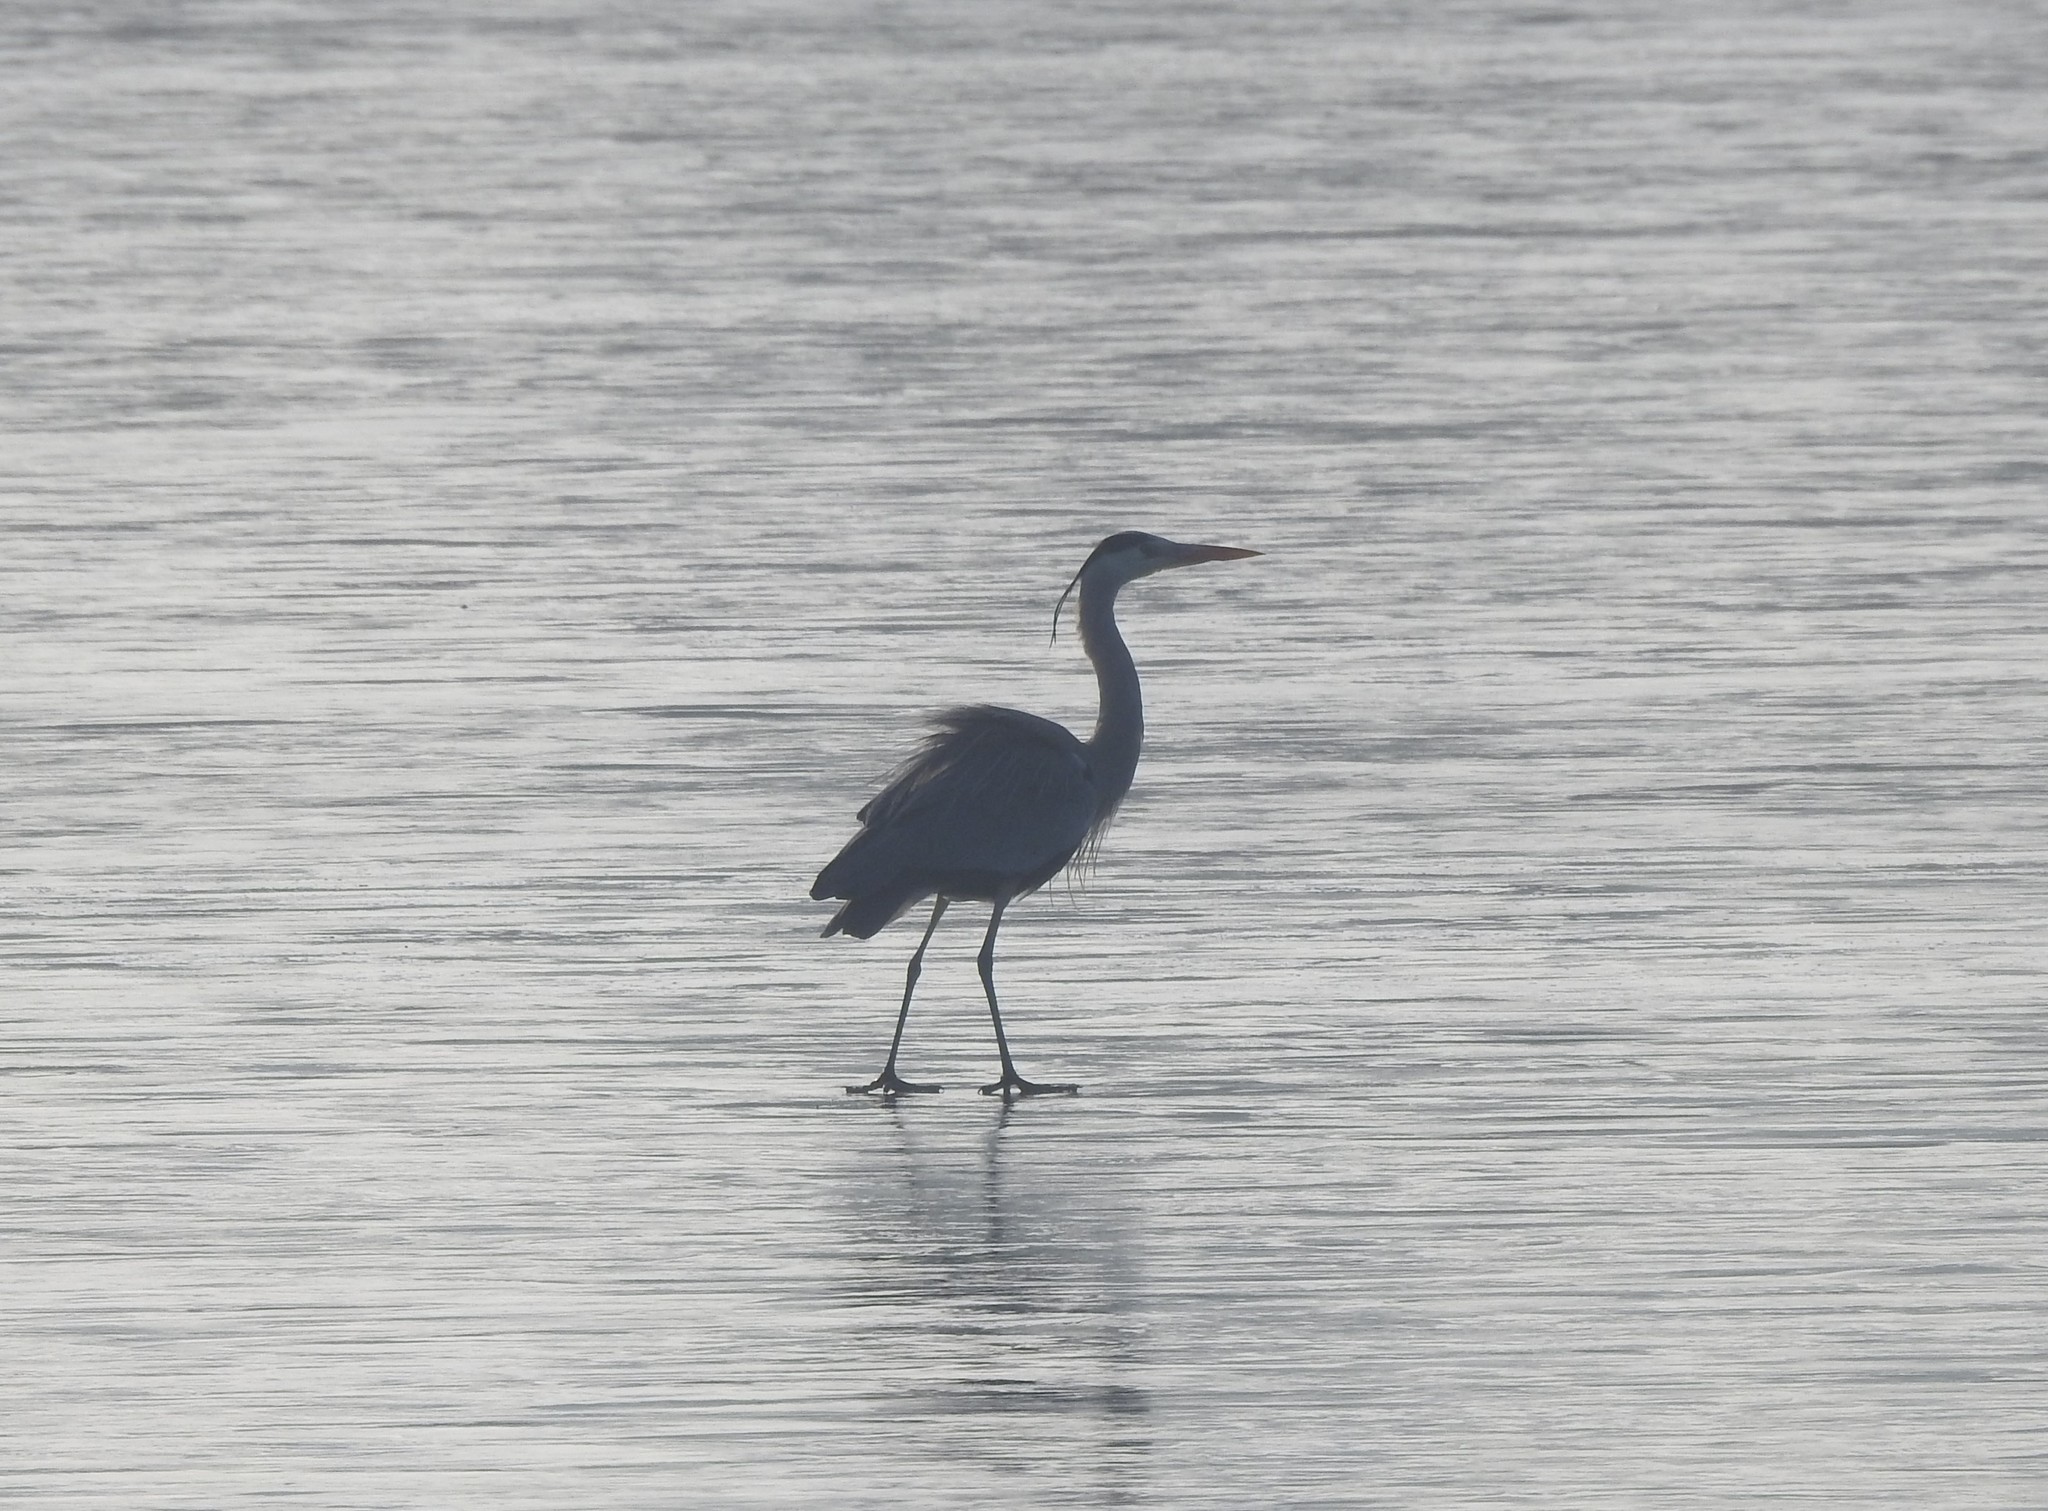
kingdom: Animalia
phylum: Chordata
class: Aves
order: Pelecaniformes
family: Ardeidae
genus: Ardea
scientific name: Ardea cinerea
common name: Grey heron
